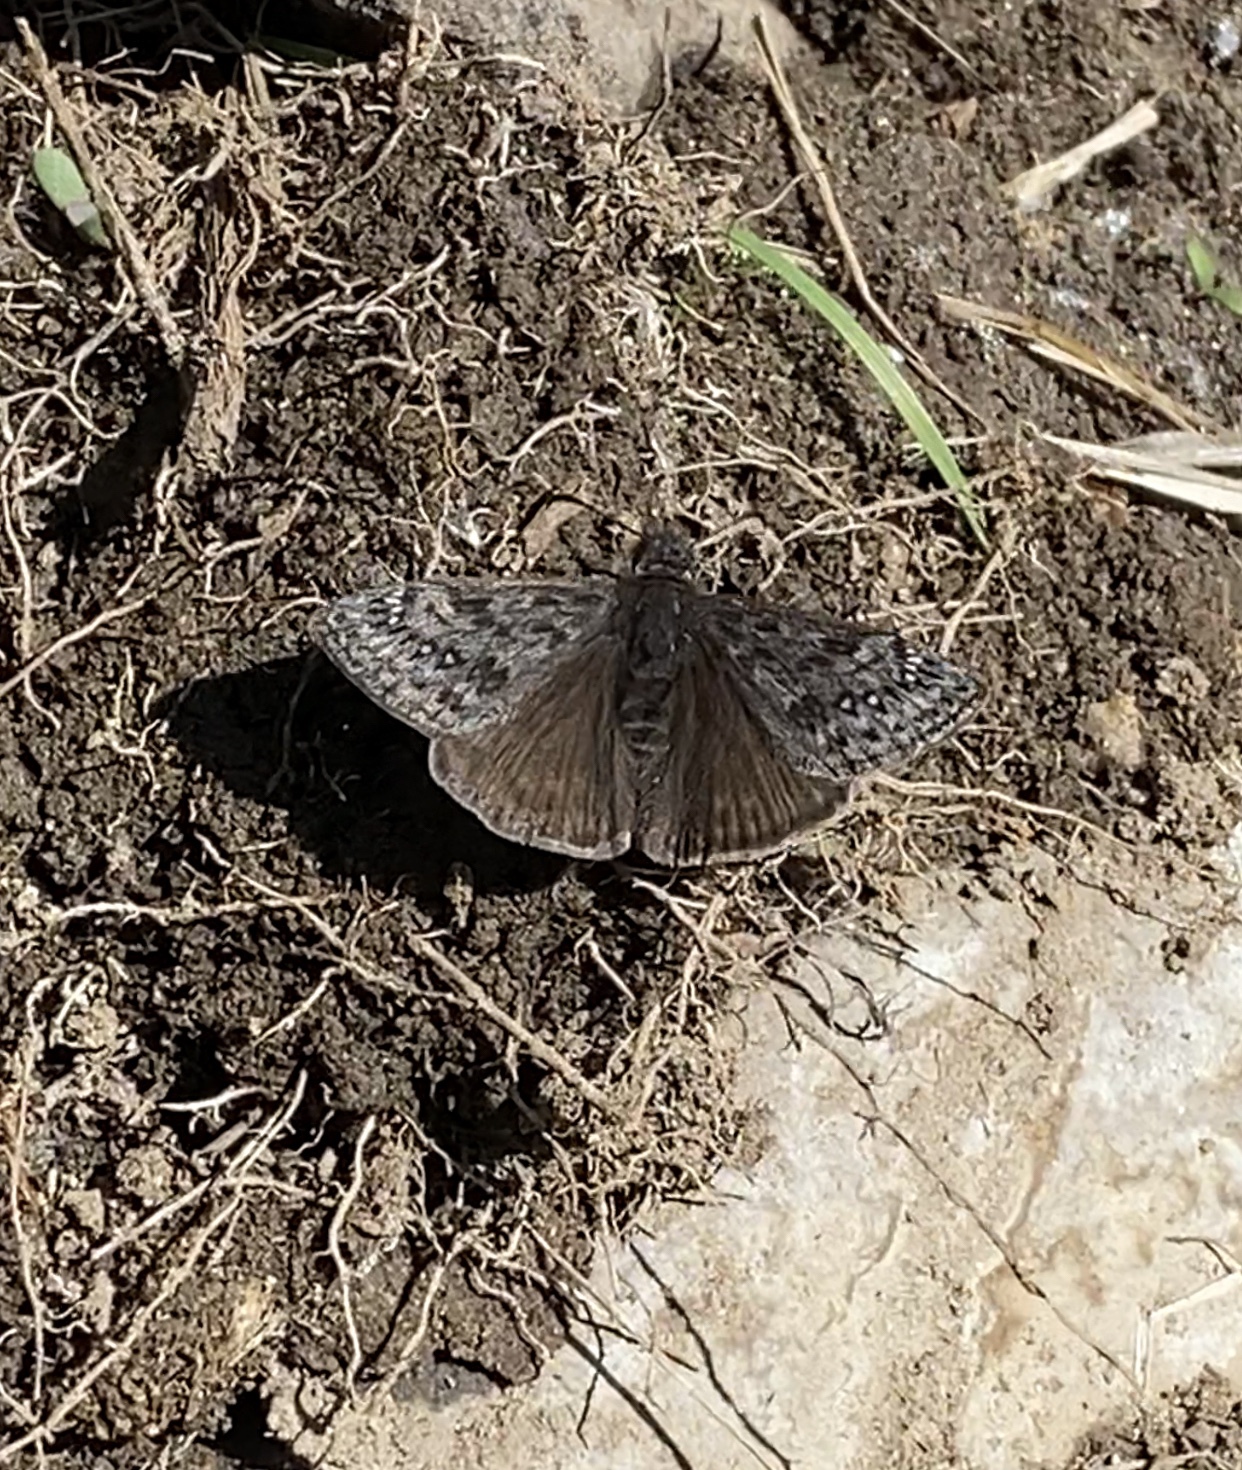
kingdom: Animalia
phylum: Arthropoda
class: Insecta
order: Lepidoptera
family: Hesperiidae
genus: Erynnis
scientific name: Erynnis propertius
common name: Propertius duskywing
